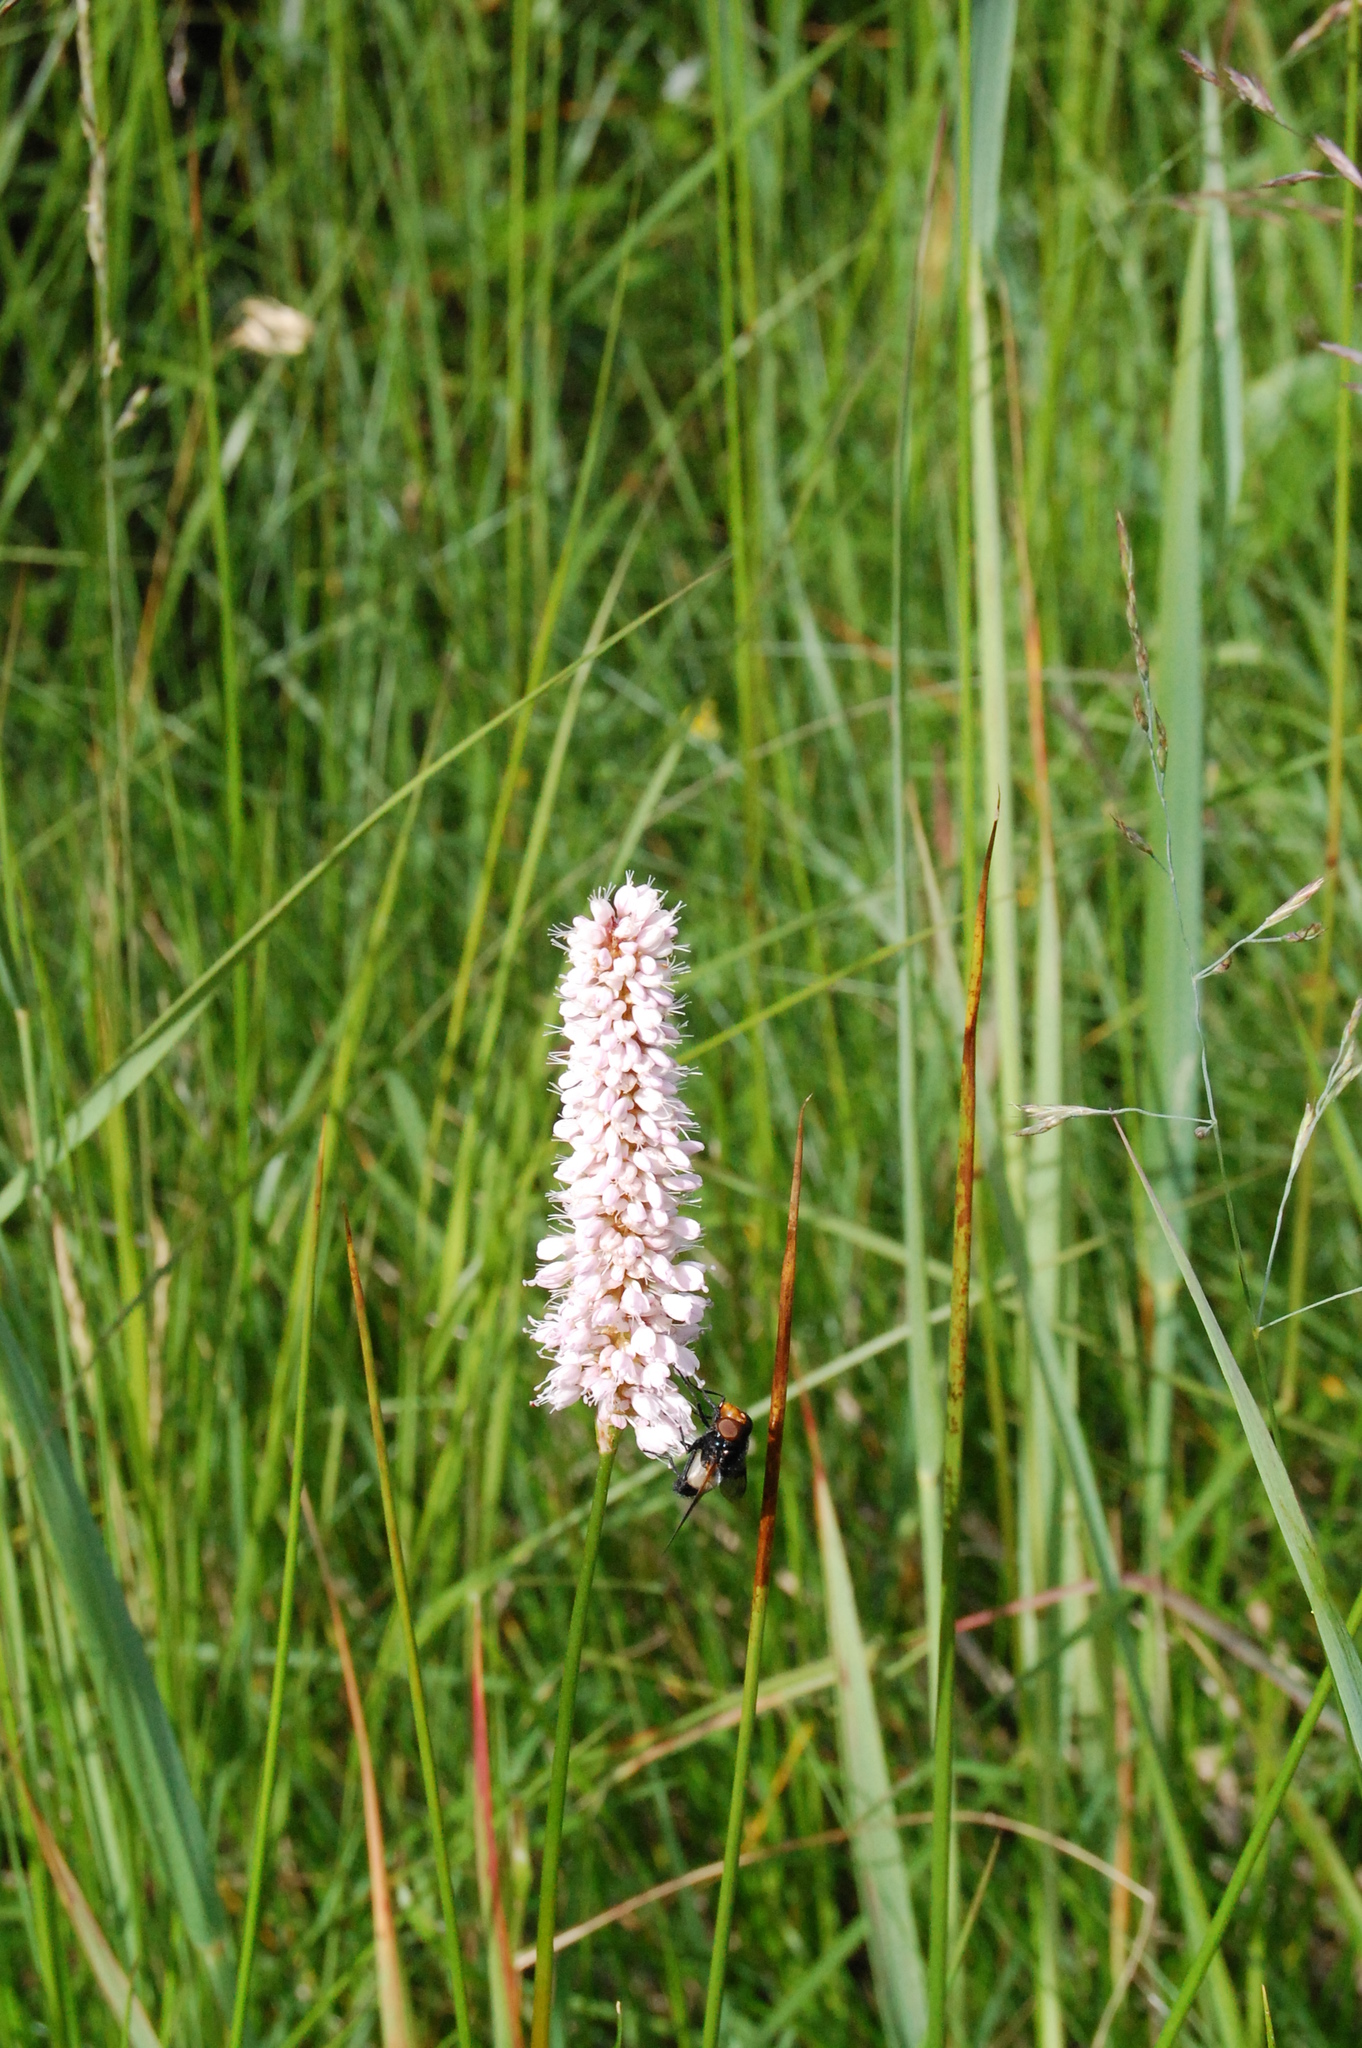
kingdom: Plantae
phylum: Tracheophyta
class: Magnoliopsida
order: Caryophyllales
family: Polygonaceae
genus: Bistorta
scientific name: Bistorta officinalis
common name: Common bistort
